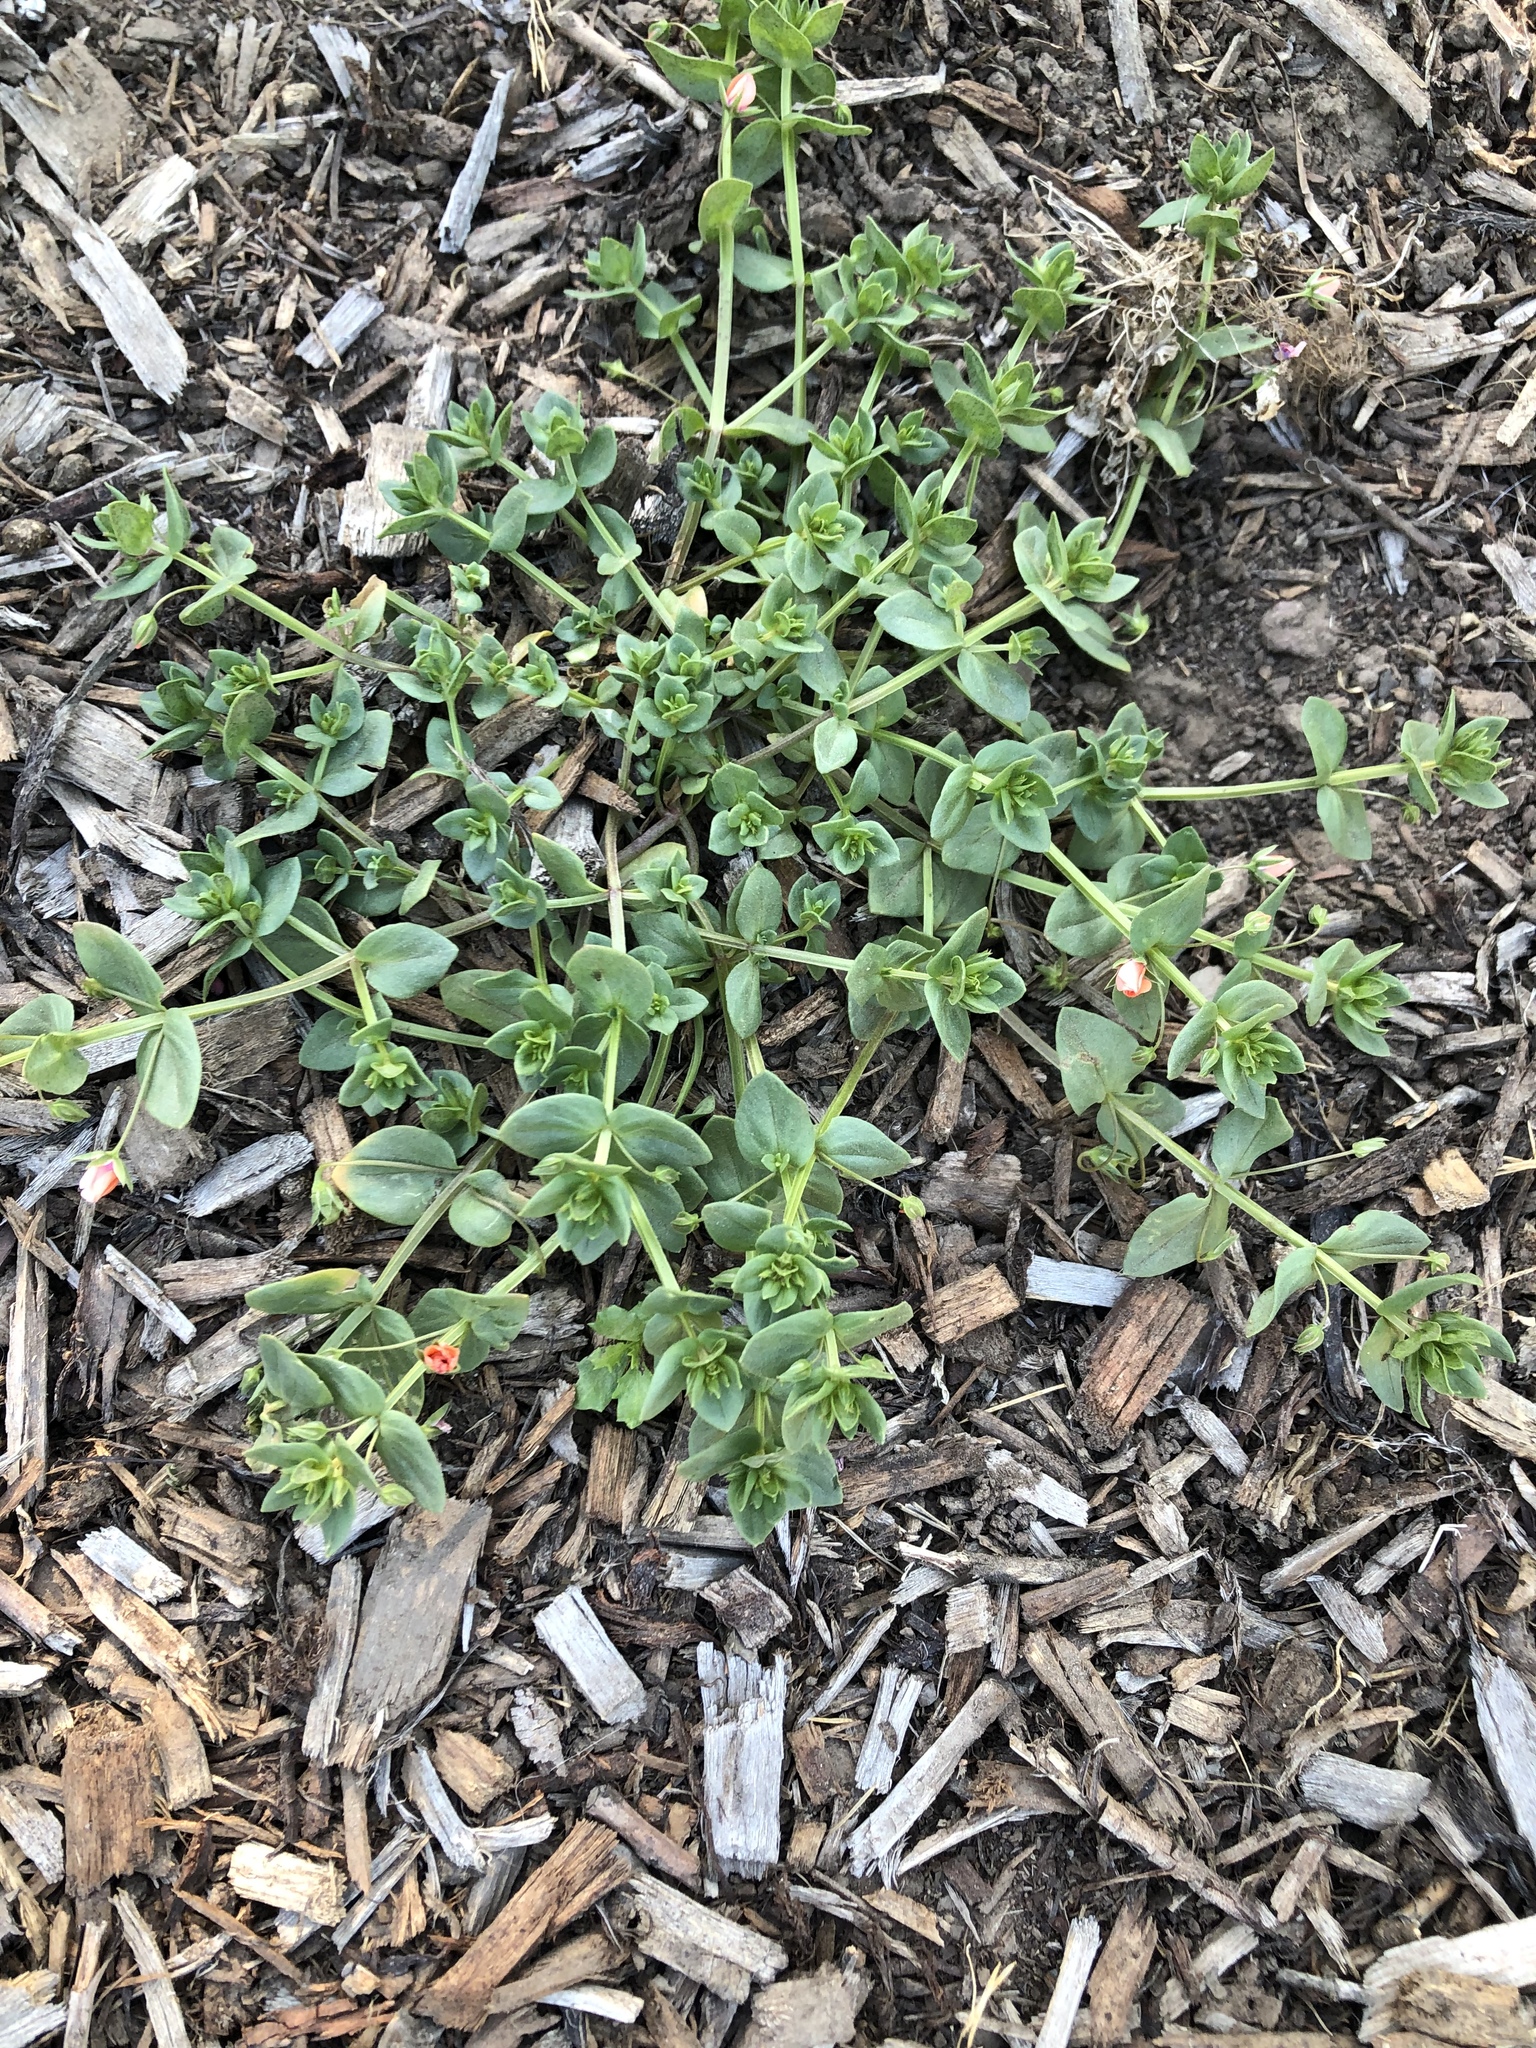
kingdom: Plantae
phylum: Tracheophyta
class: Magnoliopsida
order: Ericales
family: Primulaceae
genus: Lysimachia
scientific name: Lysimachia arvensis
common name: Scarlet pimpernel
